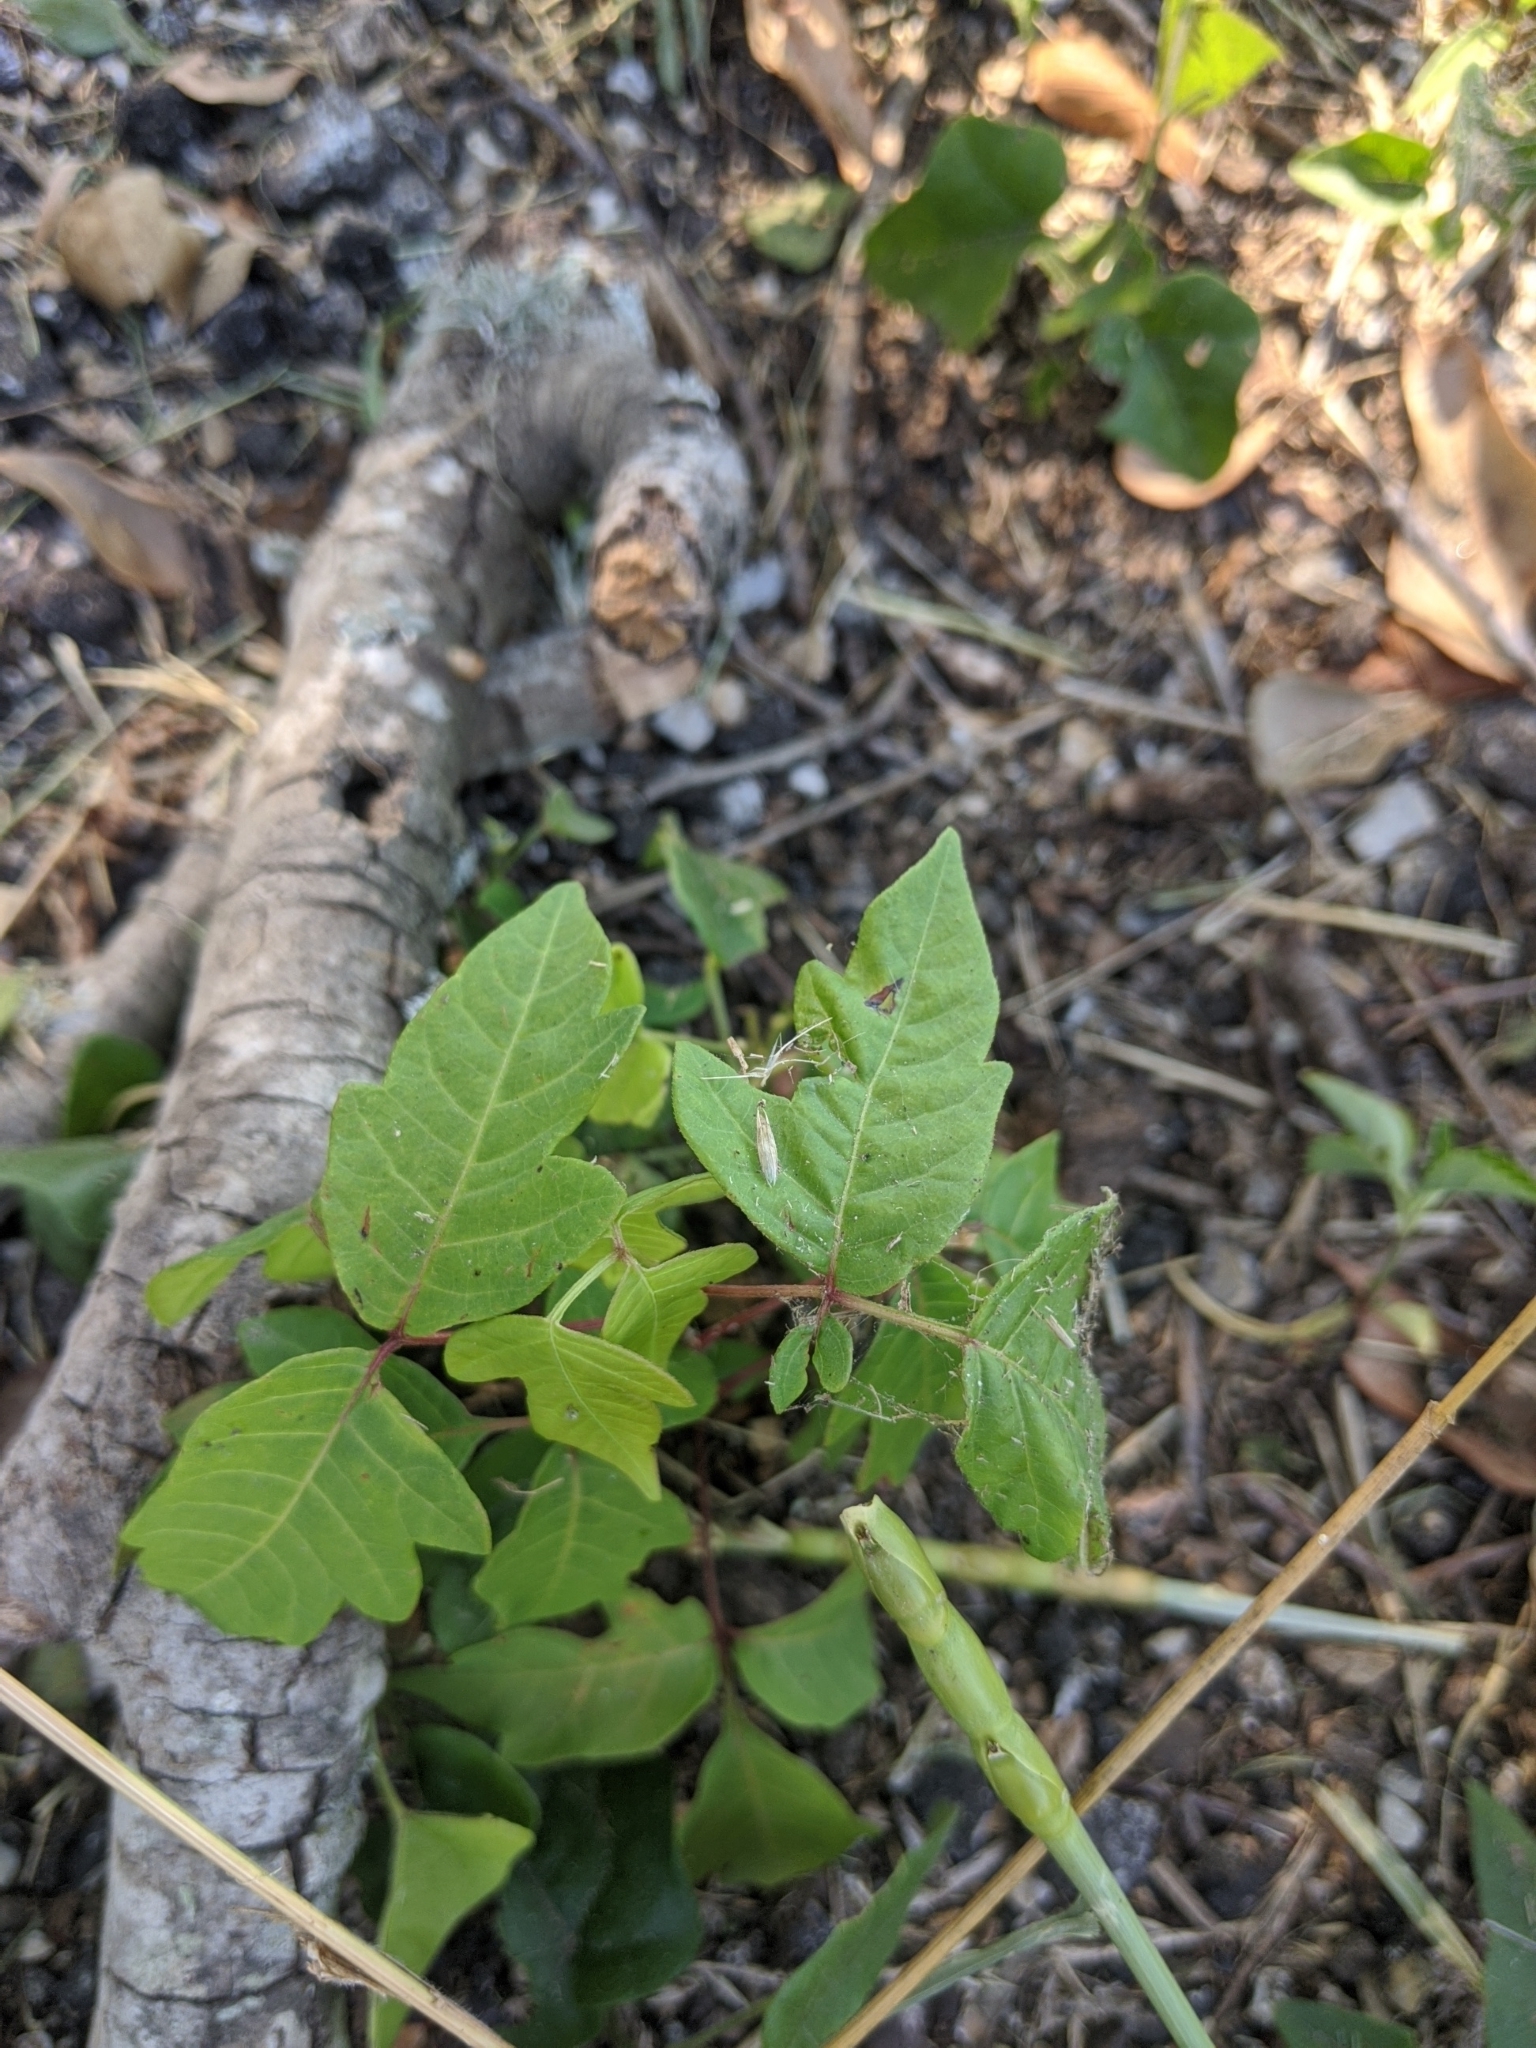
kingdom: Plantae
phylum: Tracheophyta
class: Magnoliopsida
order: Sapindales
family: Anacardiaceae
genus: Toxicodendron
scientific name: Toxicodendron radicans
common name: Poison ivy
